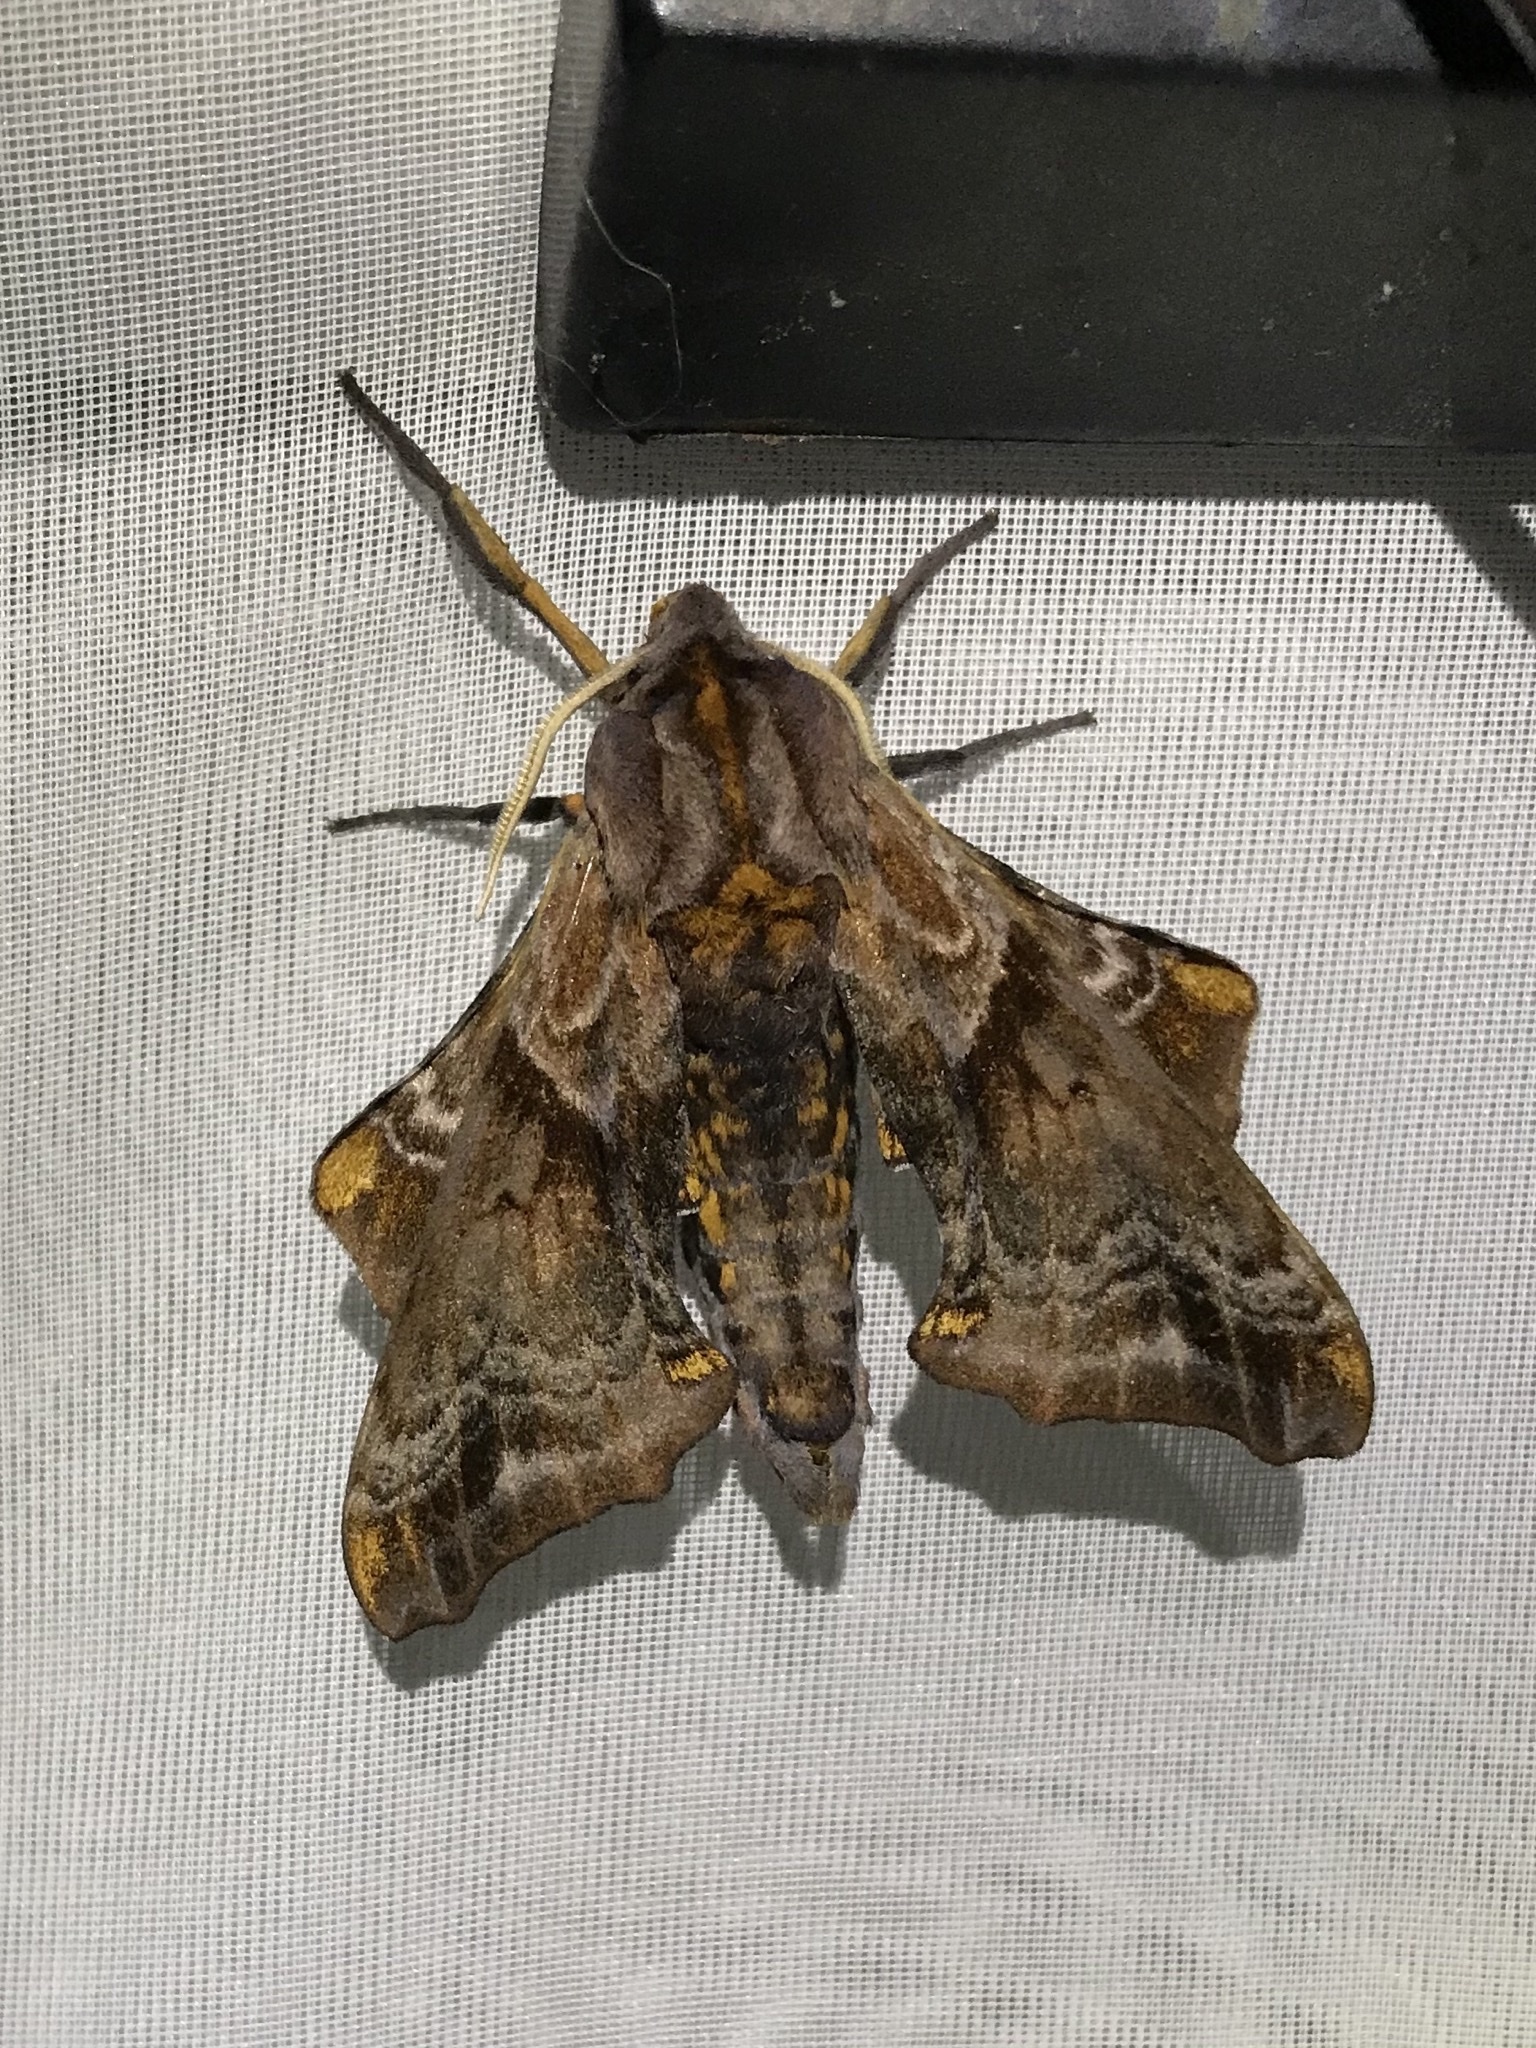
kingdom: Animalia
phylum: Arthropoda
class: Insecta
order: Lepidoptera
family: Sphingidae
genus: Paonias
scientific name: Paonias myops
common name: Small-eyed sphinx
